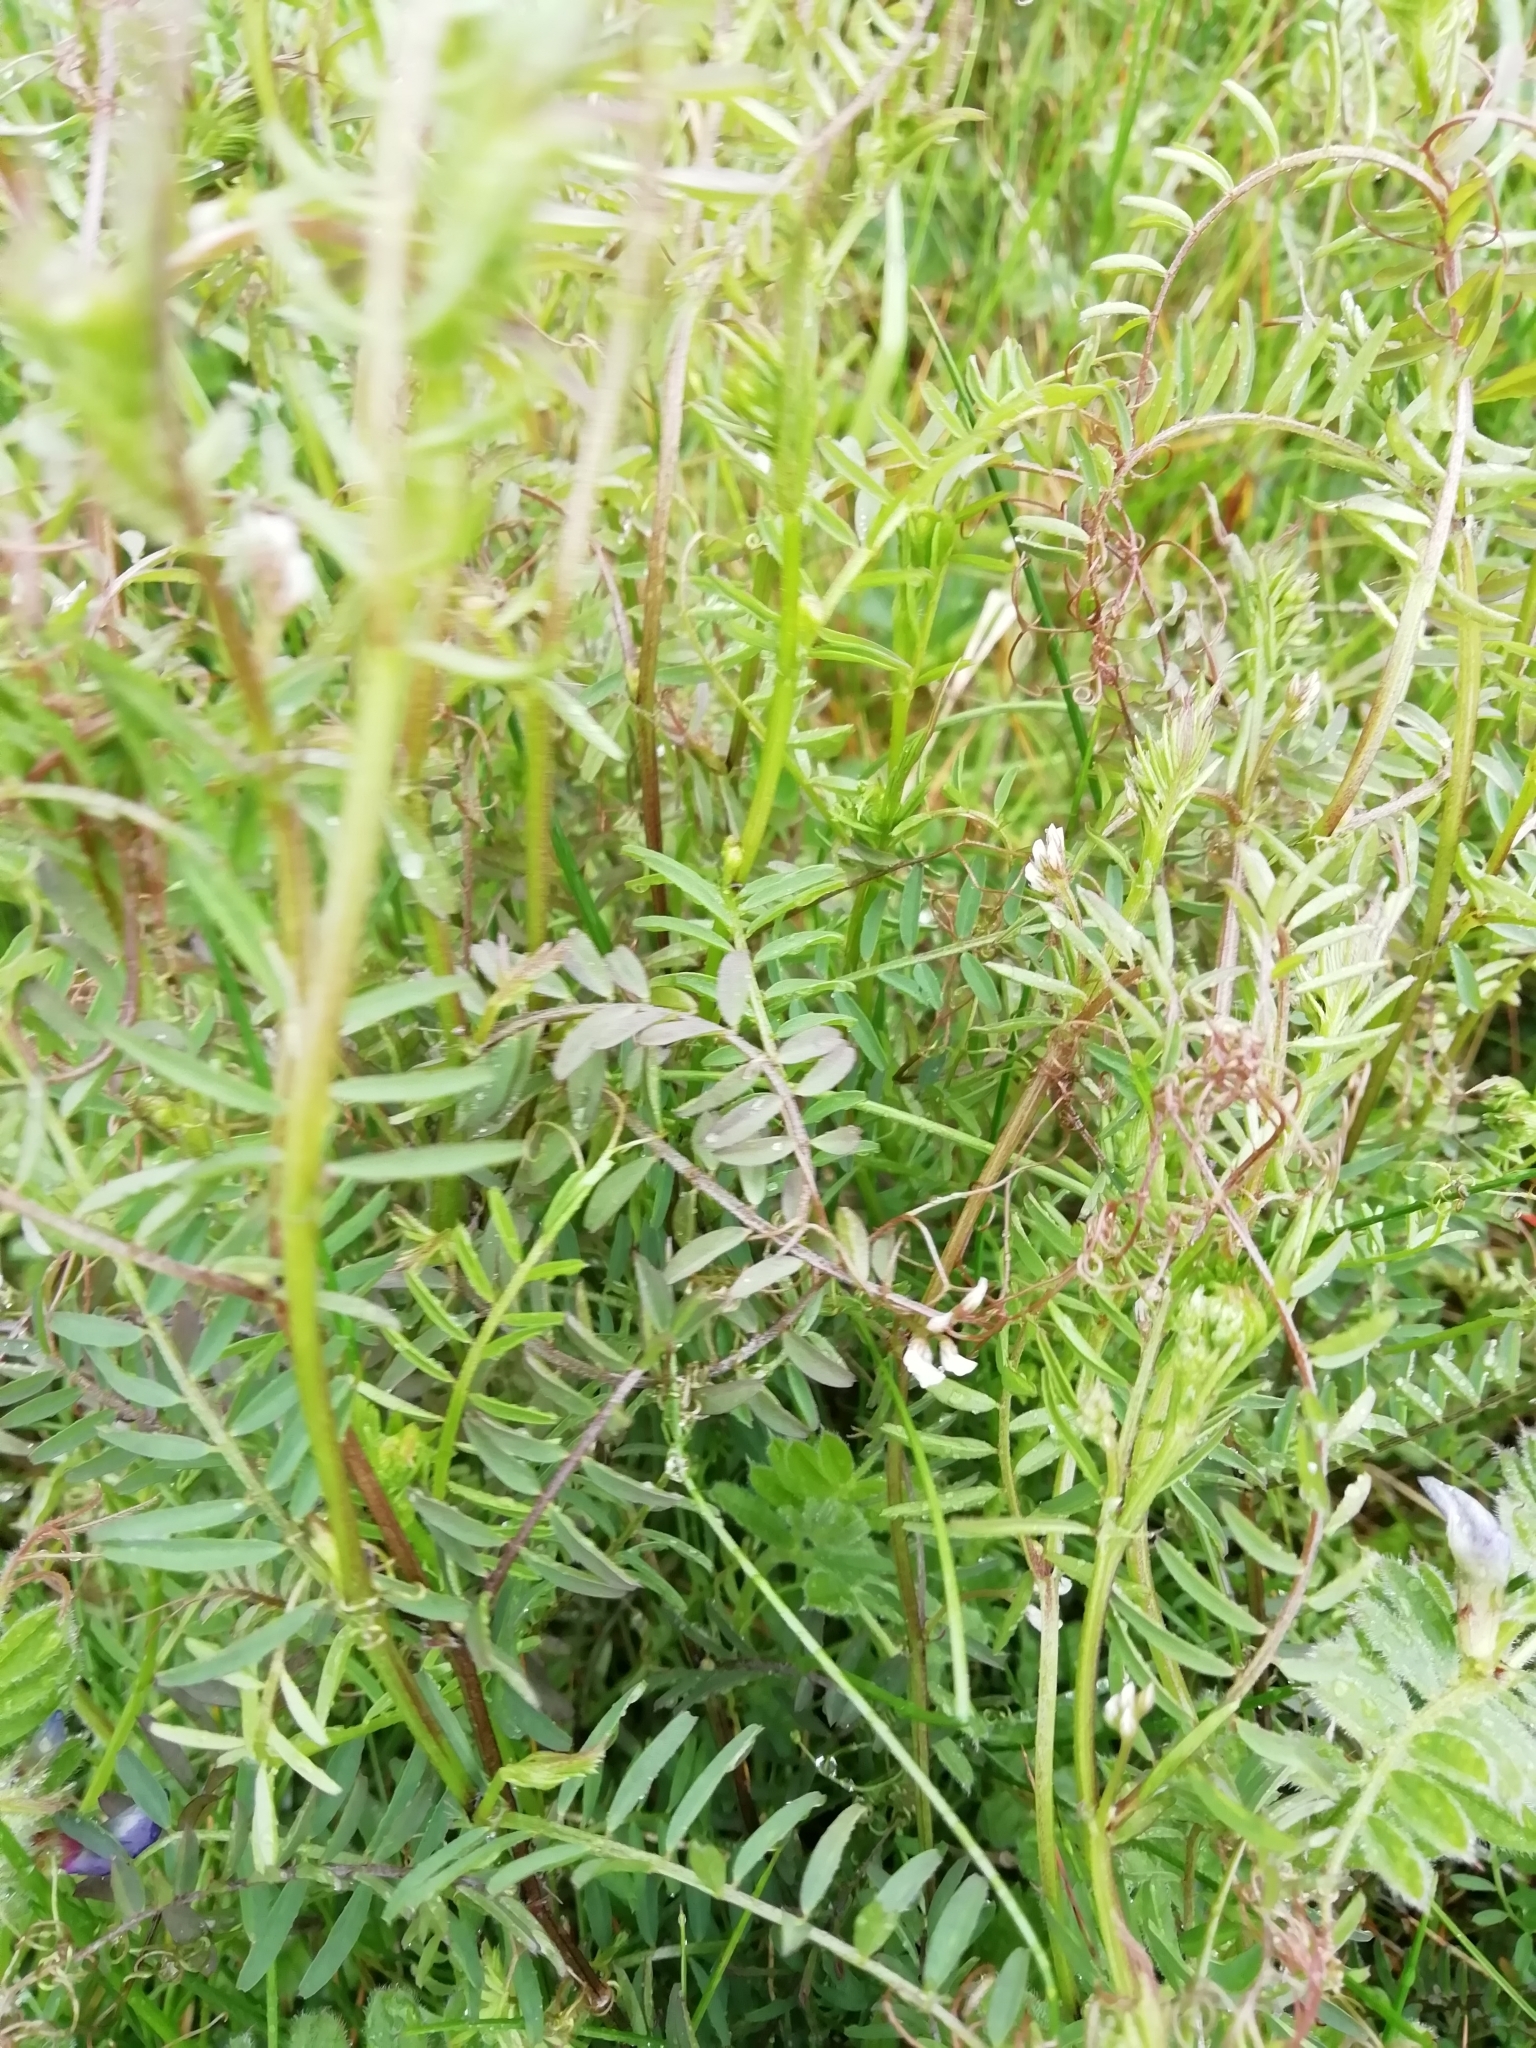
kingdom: Plantae
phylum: Tracheophyta
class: Magnoliopsida
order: Fabales
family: Fabaceae
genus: Vicia
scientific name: Vicia hirsuta
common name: Tiny vetch
